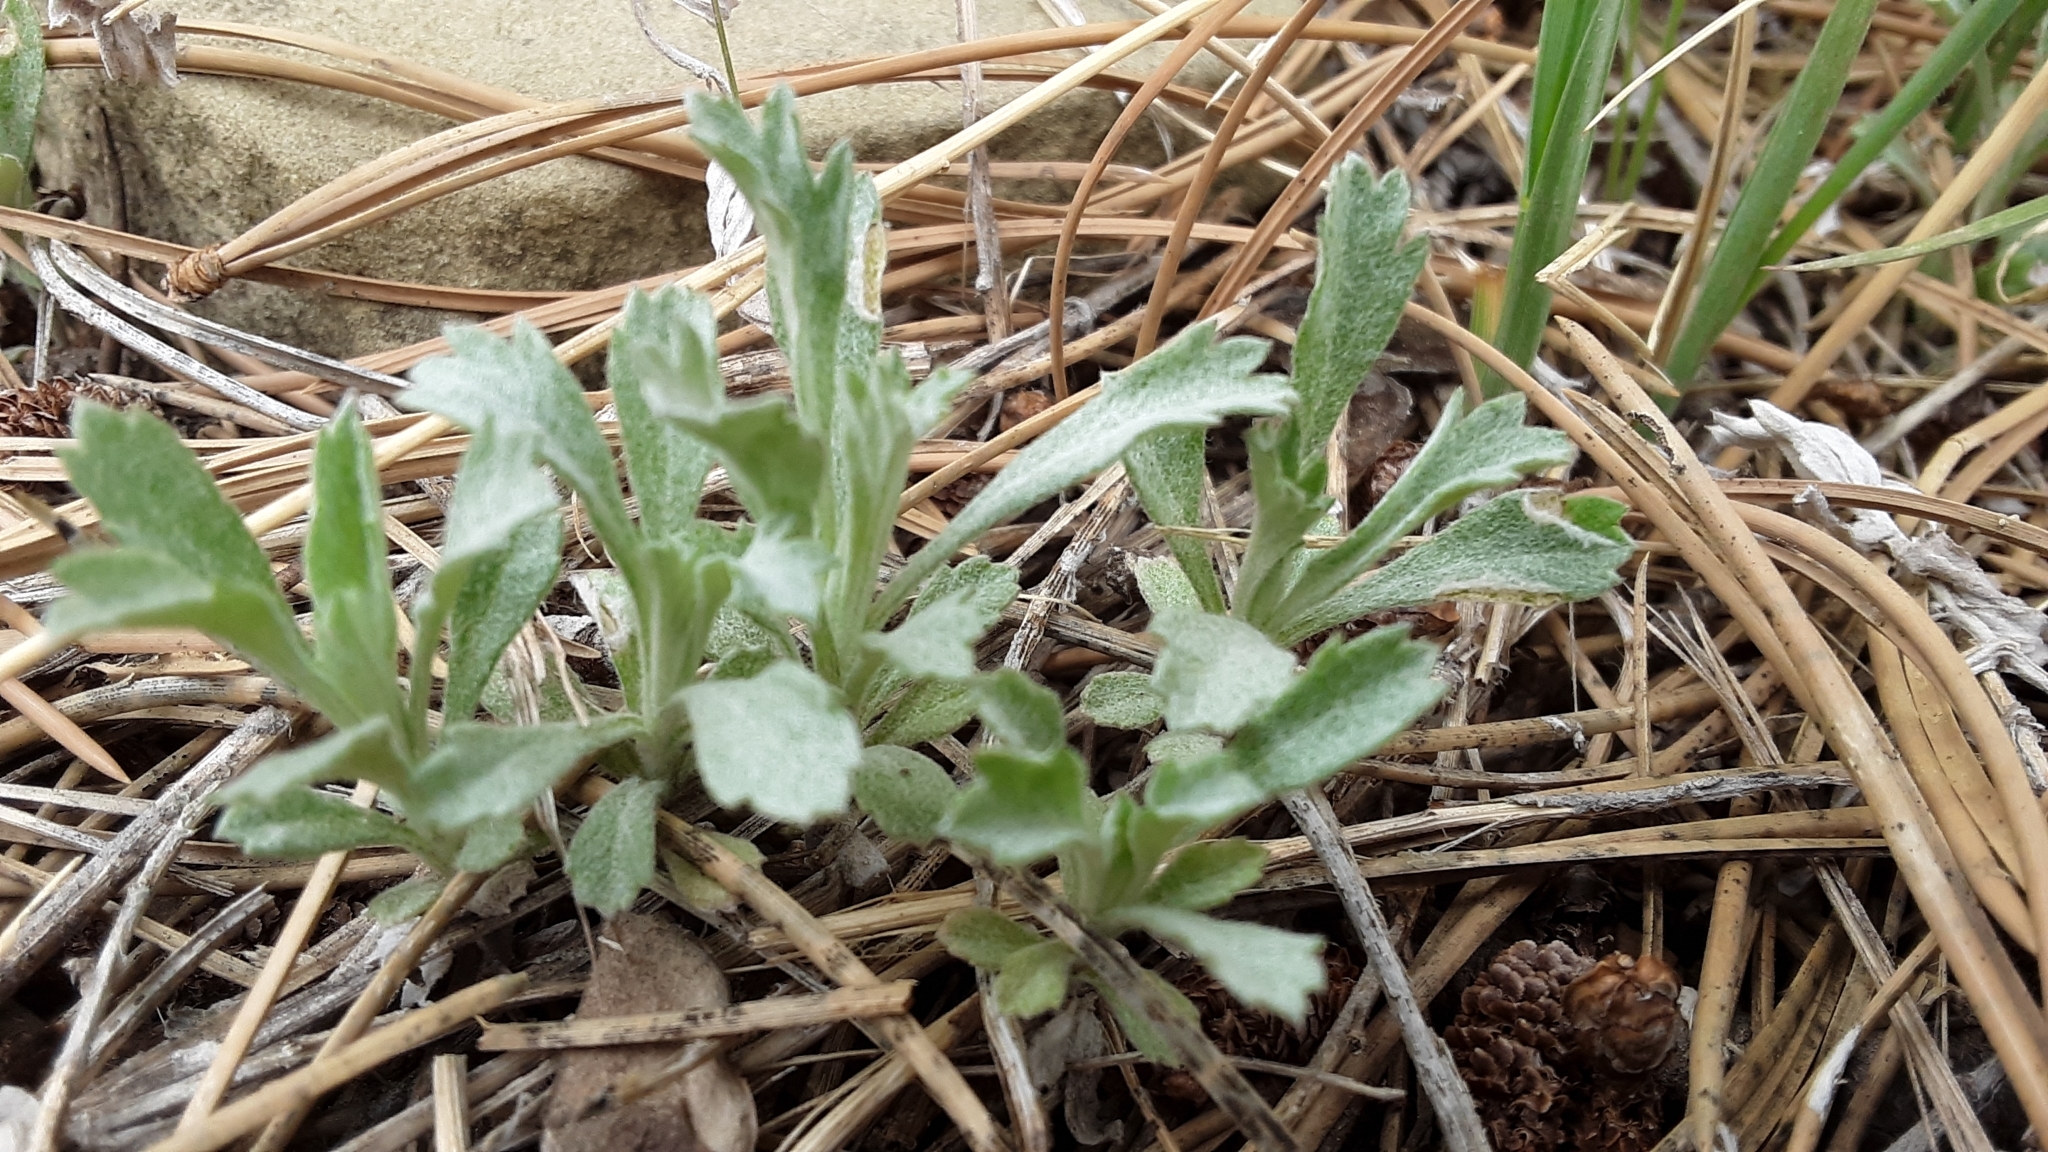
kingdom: Plantae
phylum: Tracheophyta
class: Magnoliopsida
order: Asterales
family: Asteraceae
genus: Artemisia
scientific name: Artemisia ludoviciana
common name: Western mugwort
